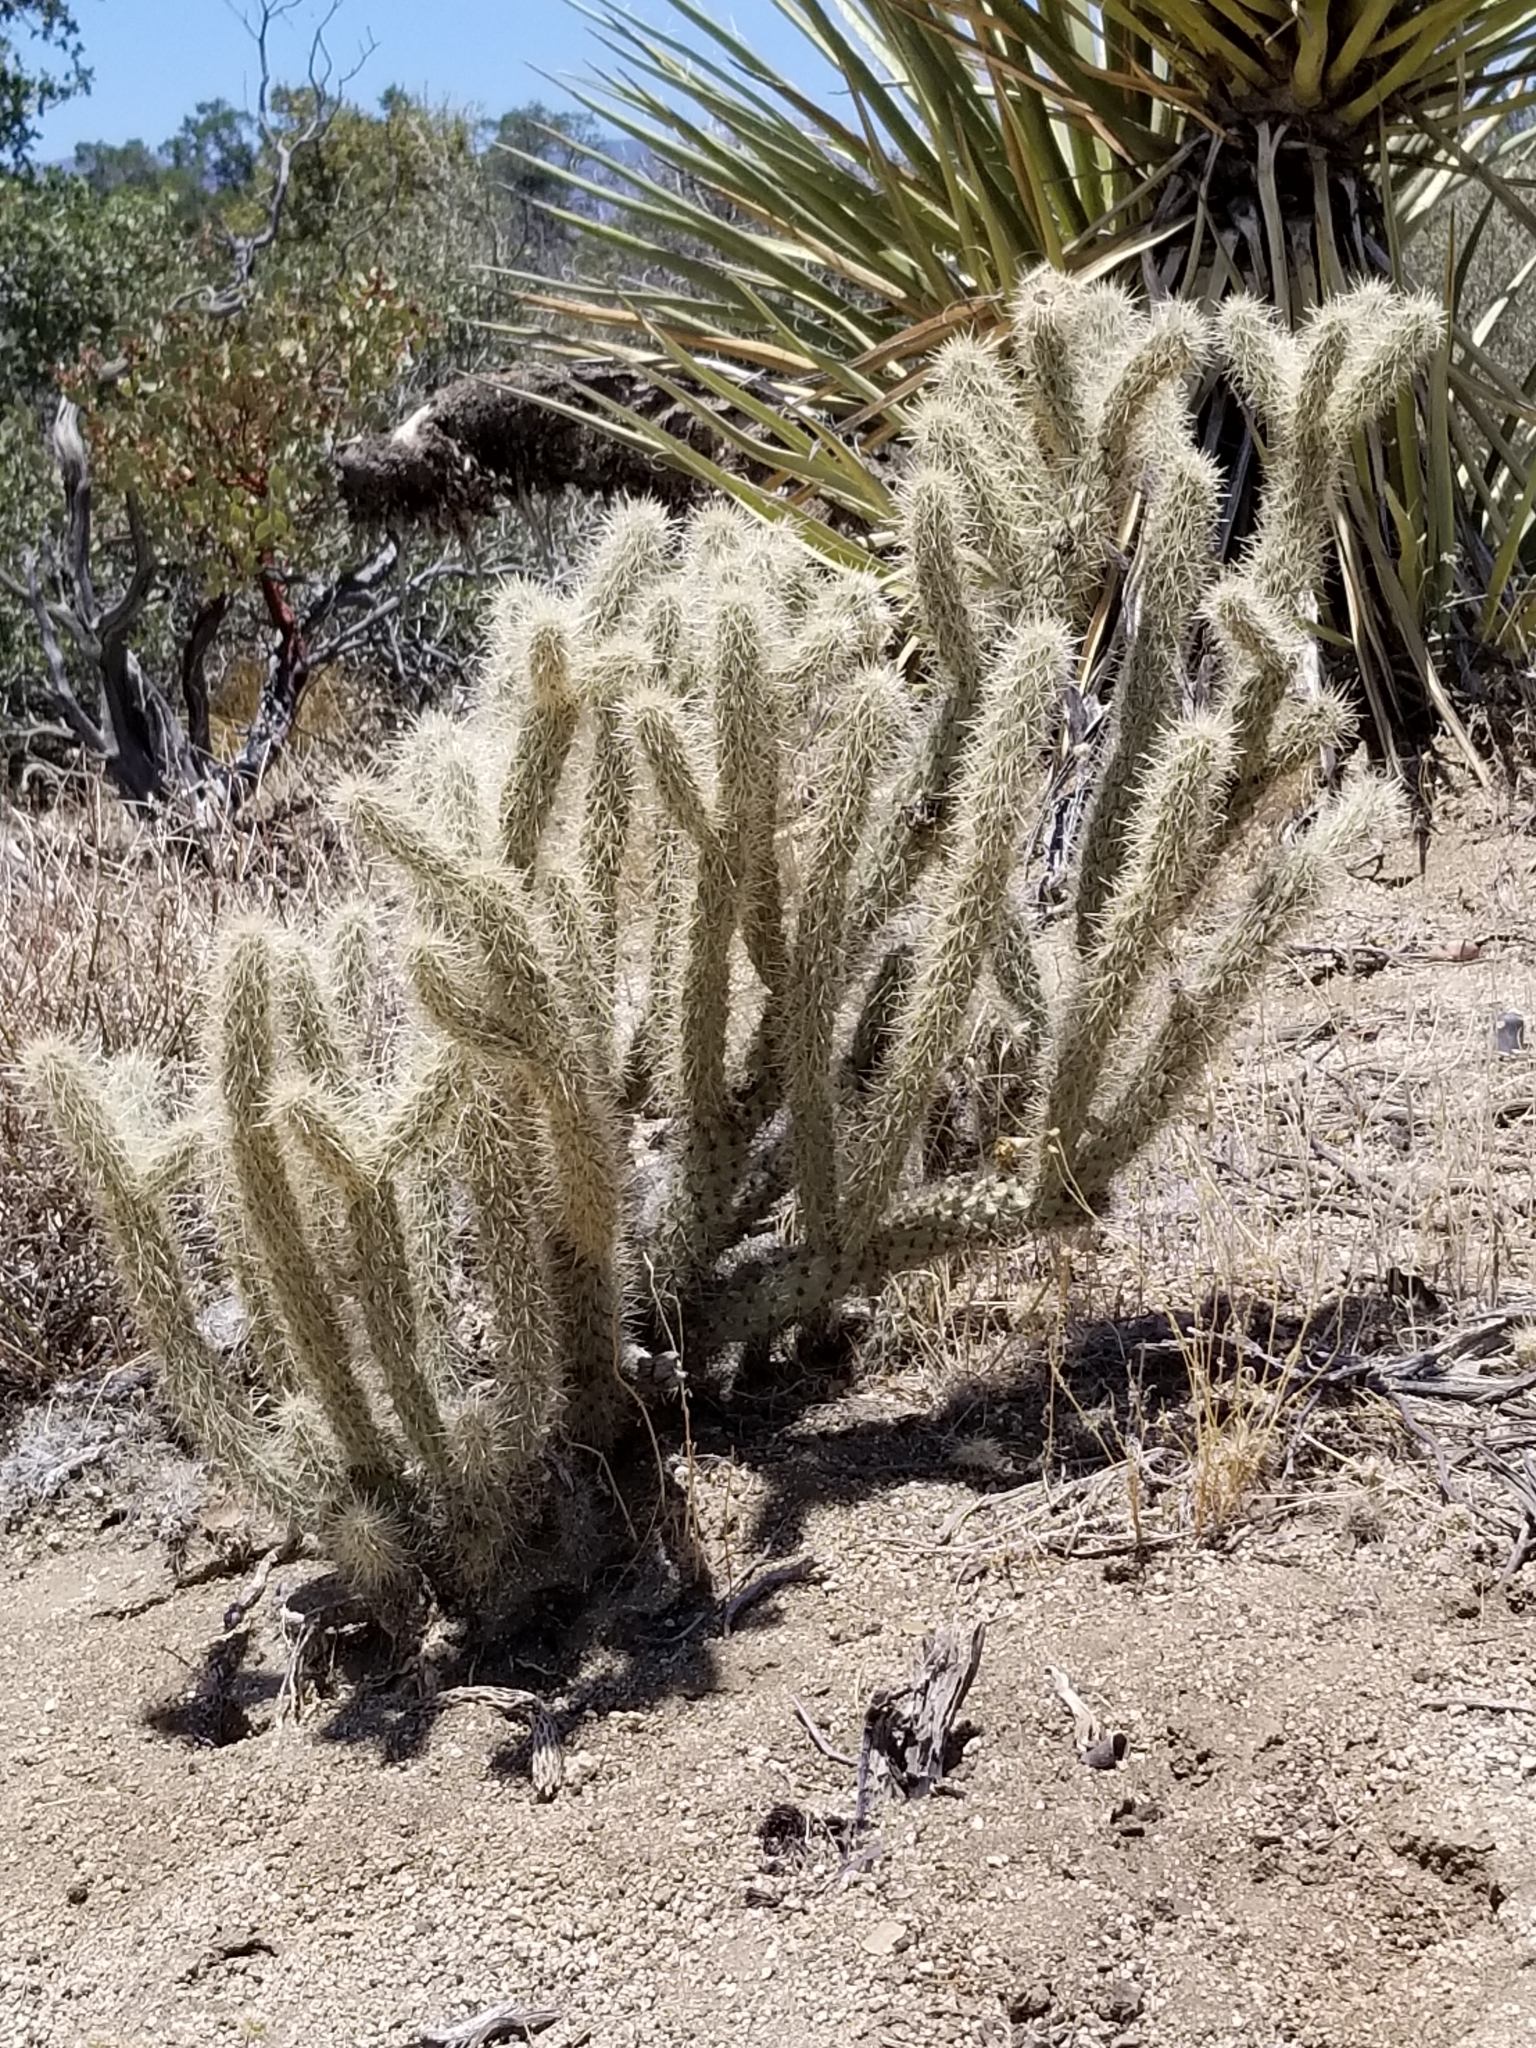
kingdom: Plantae
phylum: Tracheophyta
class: Magnoliopsida
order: Caryophyllales
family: Cactaceae
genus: Cylindropuntia
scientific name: Cylindropuntia ganderi
